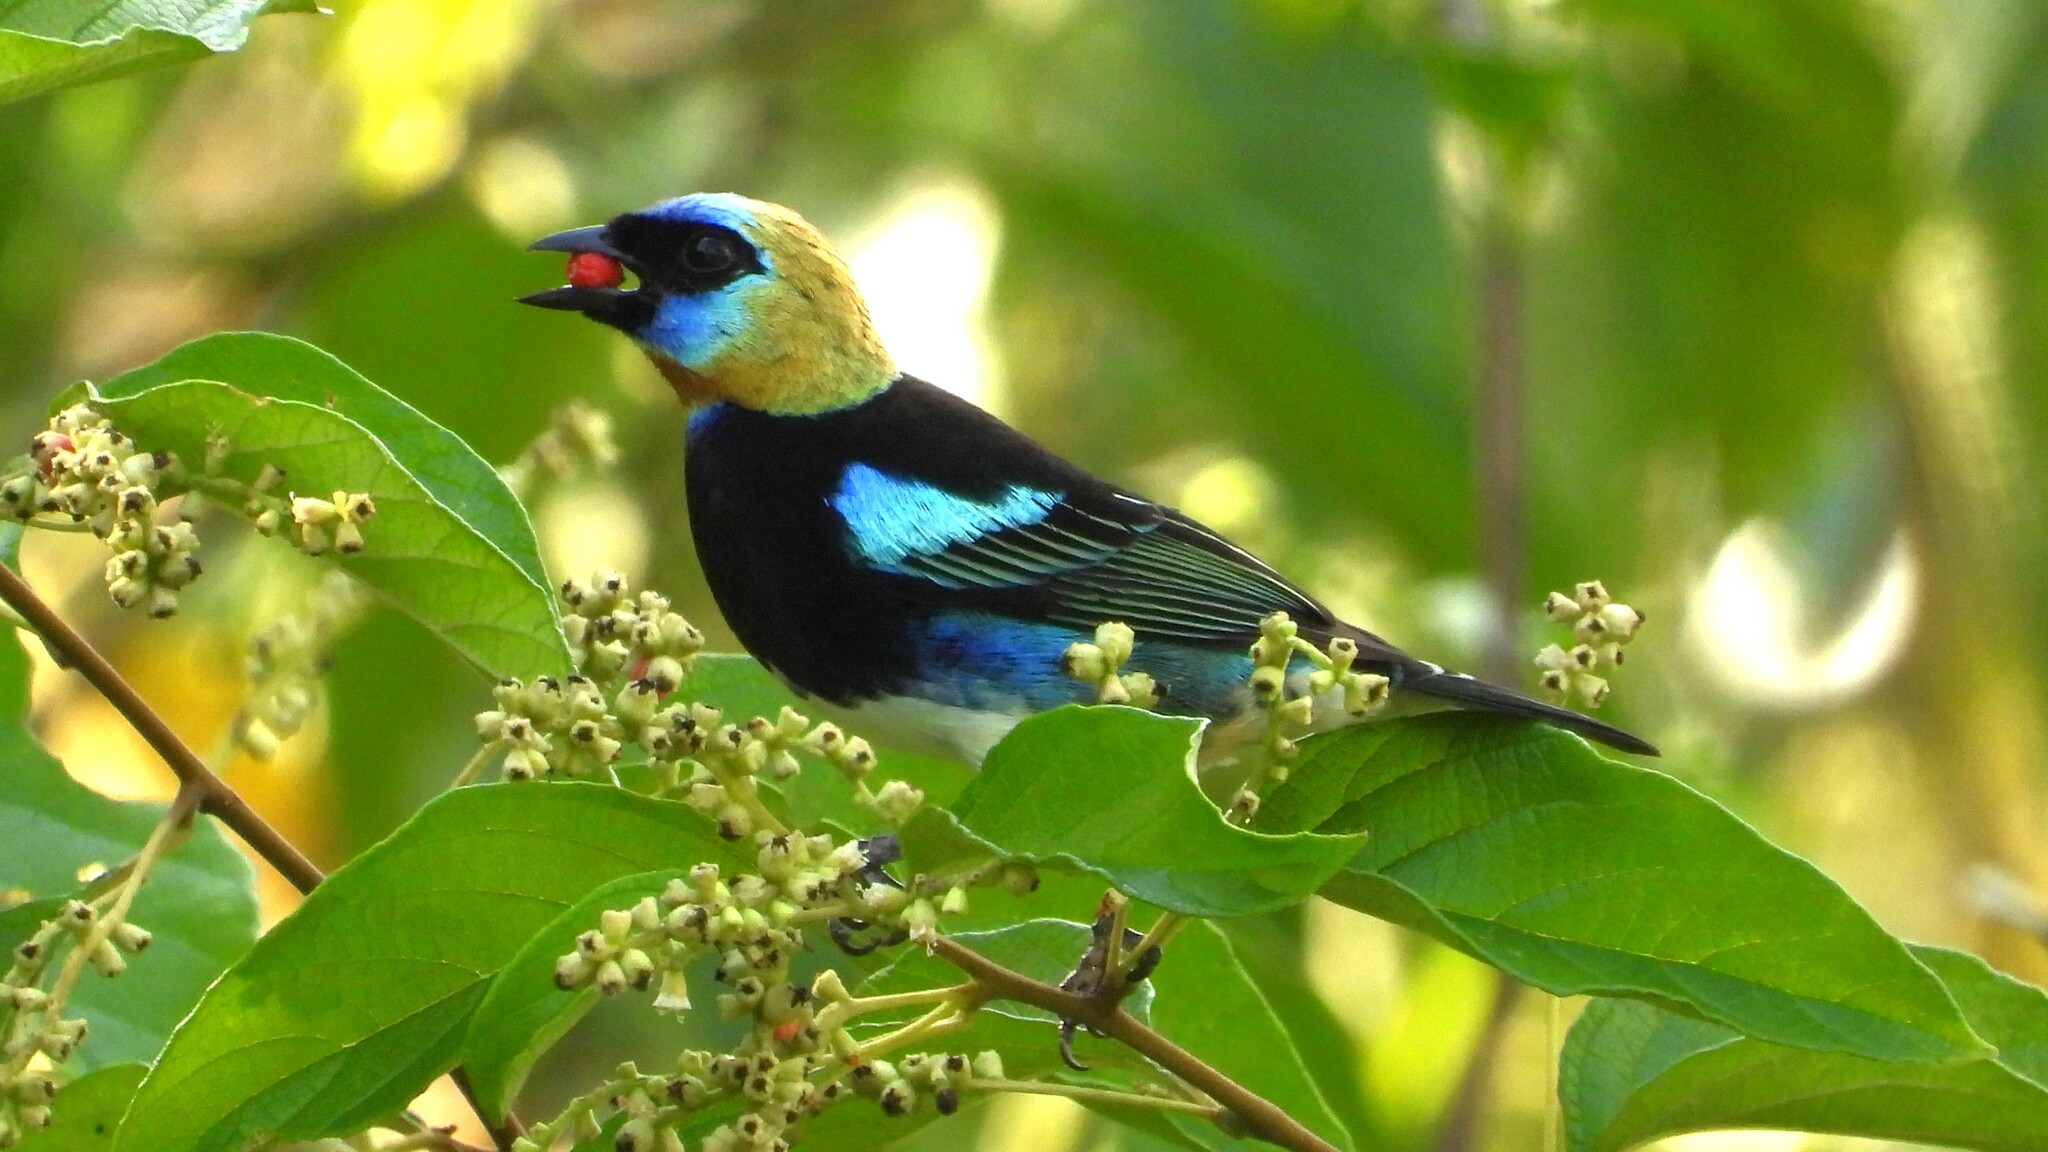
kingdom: Animalia
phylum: Chordata
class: Aves
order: Passeriformes
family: Thraupidae
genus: Stilpnia
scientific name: Stilpnia larvata
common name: Golden-hooded tanager
